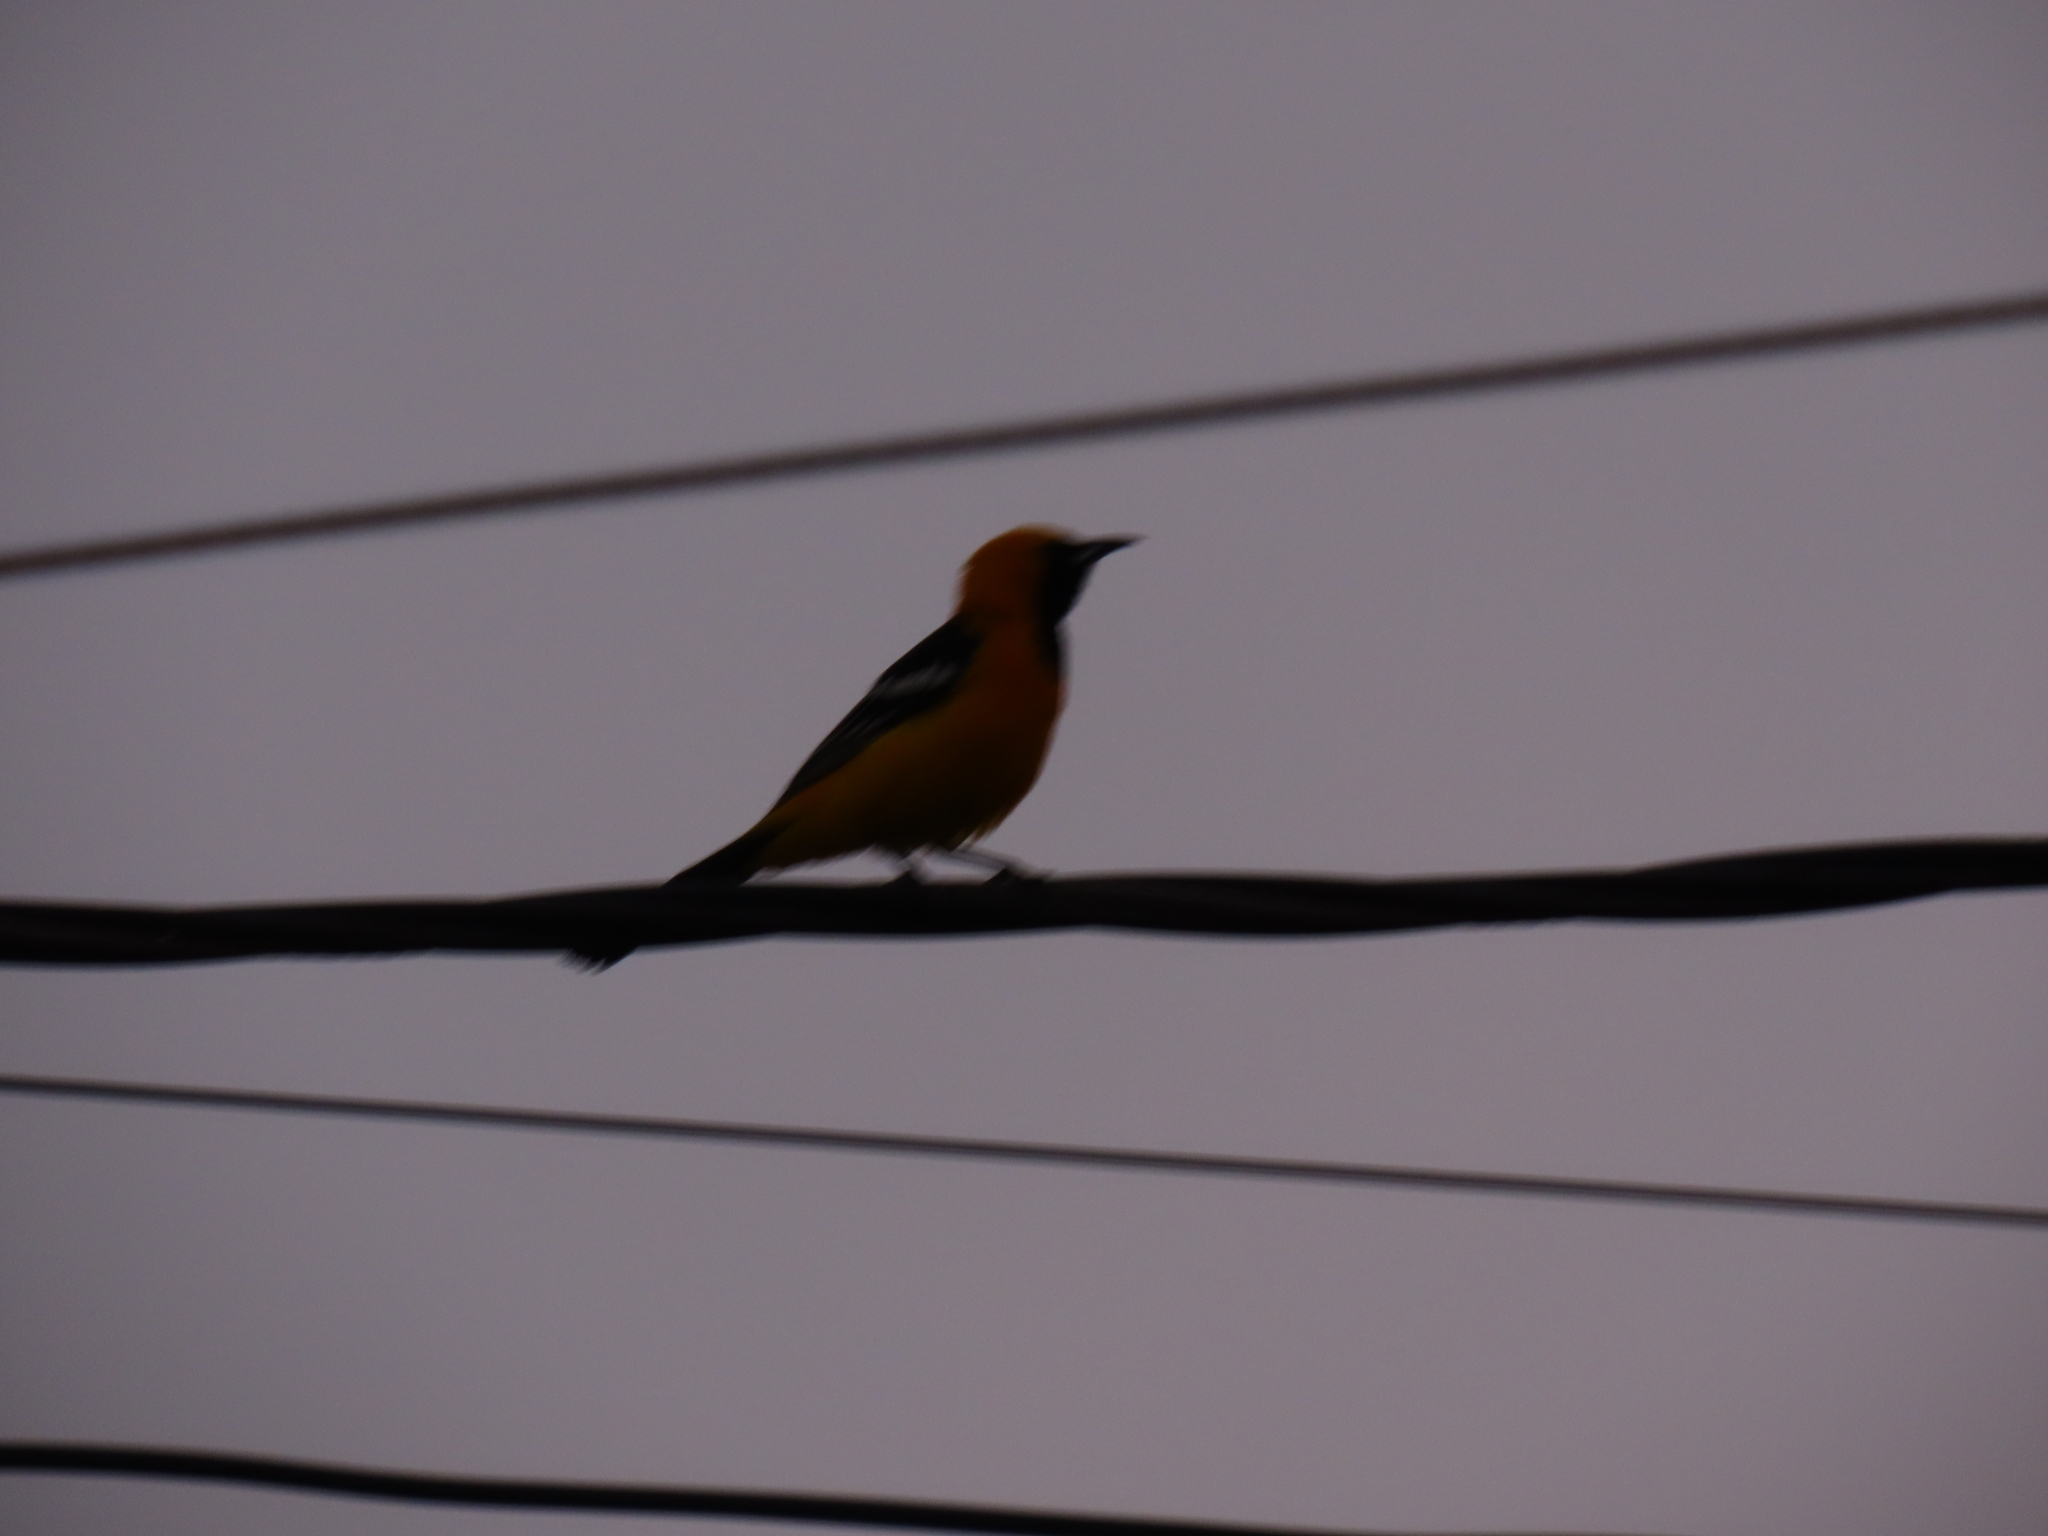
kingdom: Animalia
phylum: Chordata
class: Aves
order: Passeriformes
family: Icteridae
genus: Icterus
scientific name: Icterus cucullatus
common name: Hooded oriole
